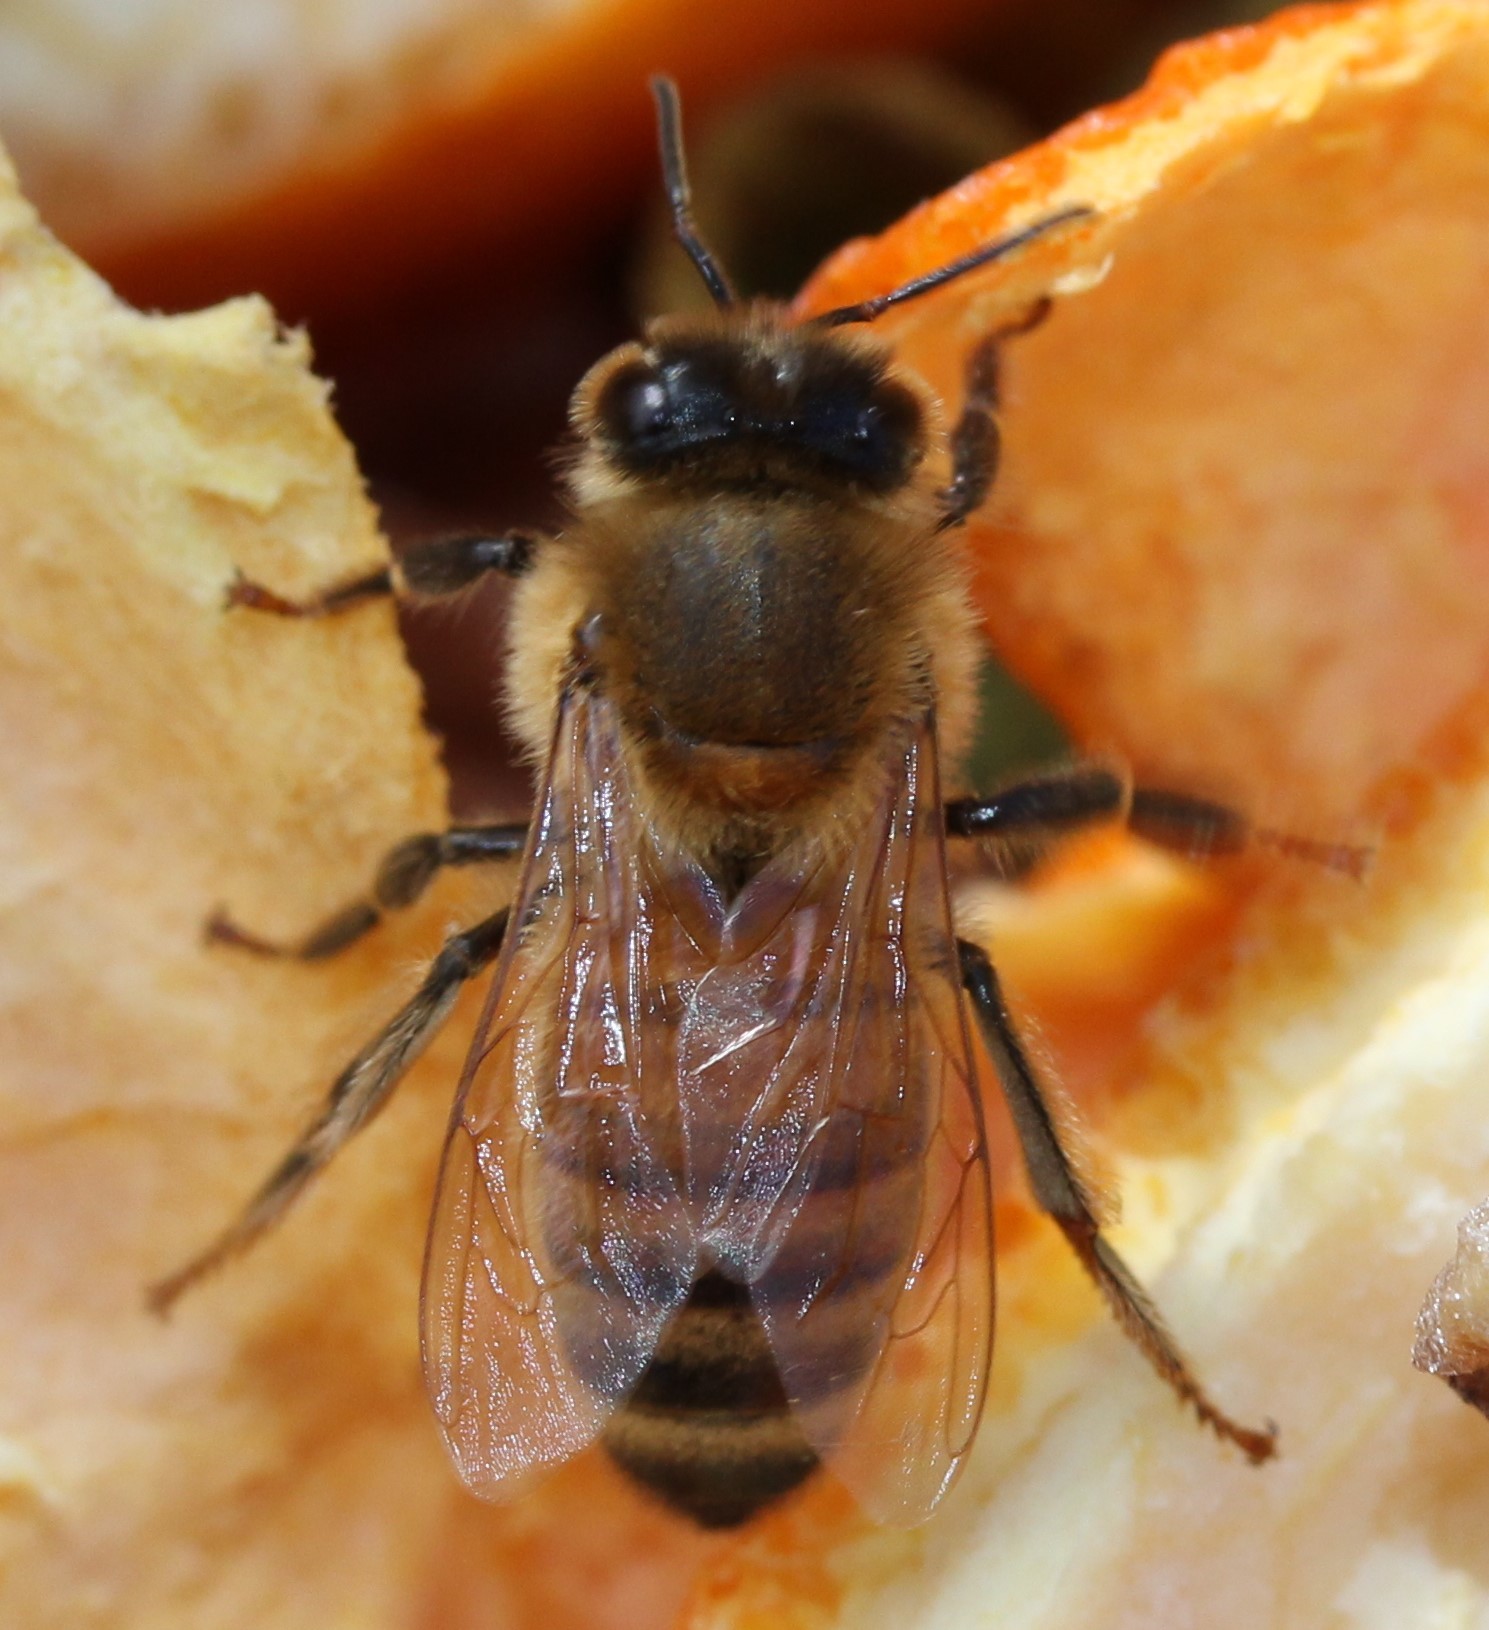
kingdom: Animalia
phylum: Arthropoda
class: Insecta
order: Hymenoptera
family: Apidae
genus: Apis
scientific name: Apis mellifera
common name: Honey bee
